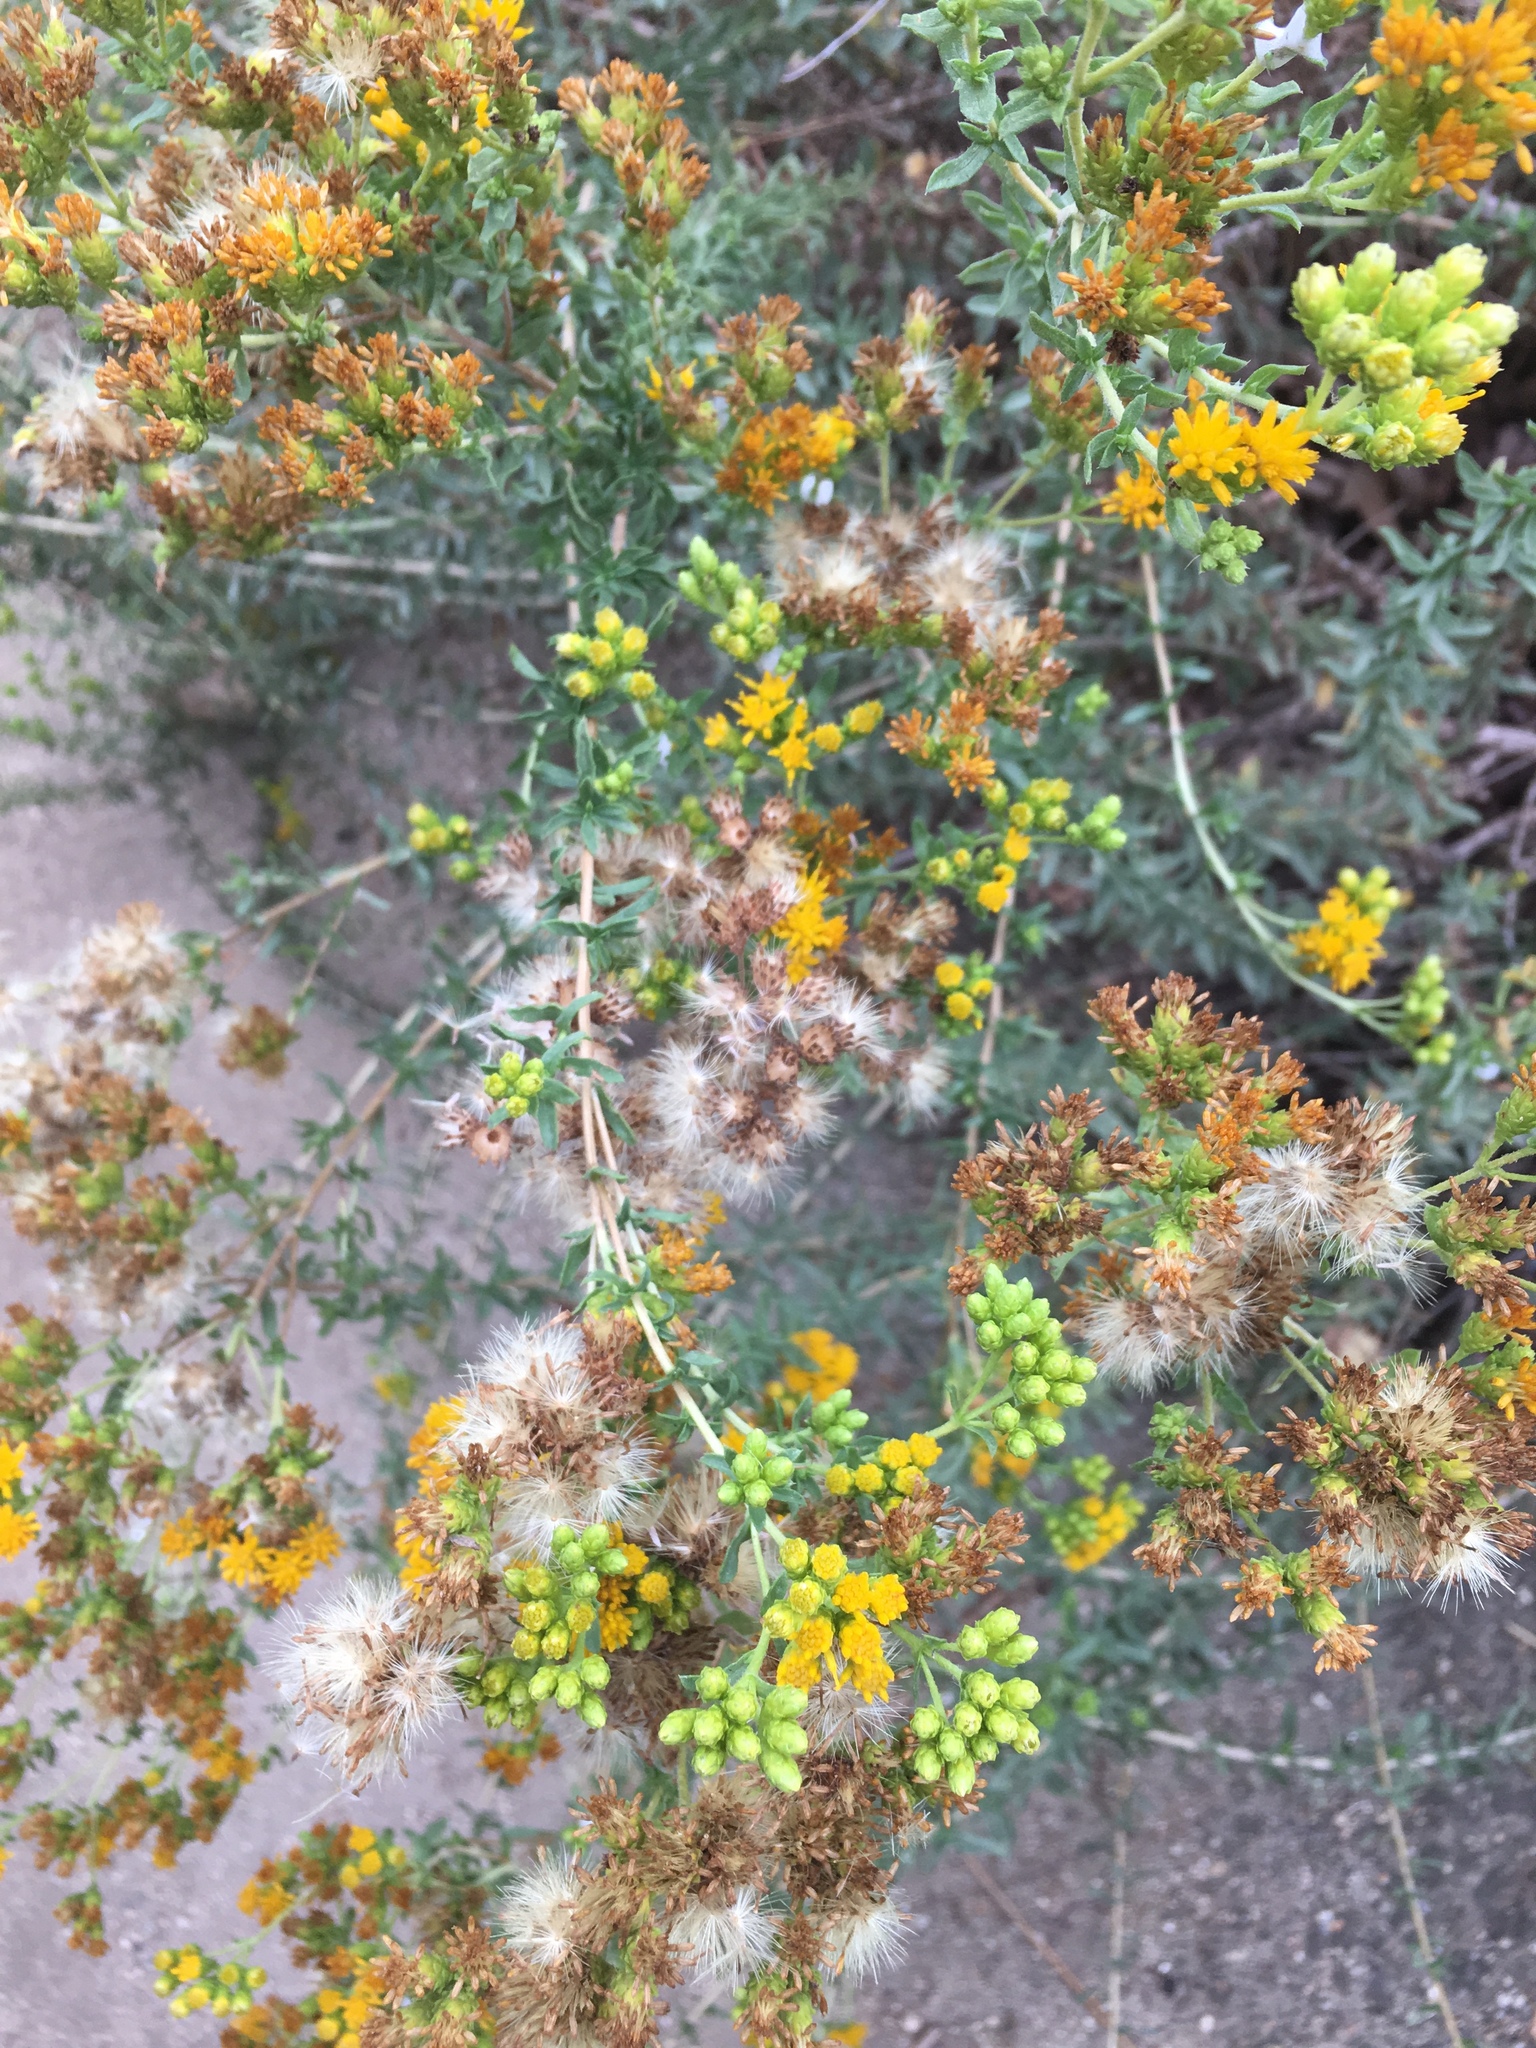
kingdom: Plantae
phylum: Tracheophyta
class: Magnoliopsida
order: Asterales
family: Asteraceae
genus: Isocoma
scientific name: Isocoma menziesii
